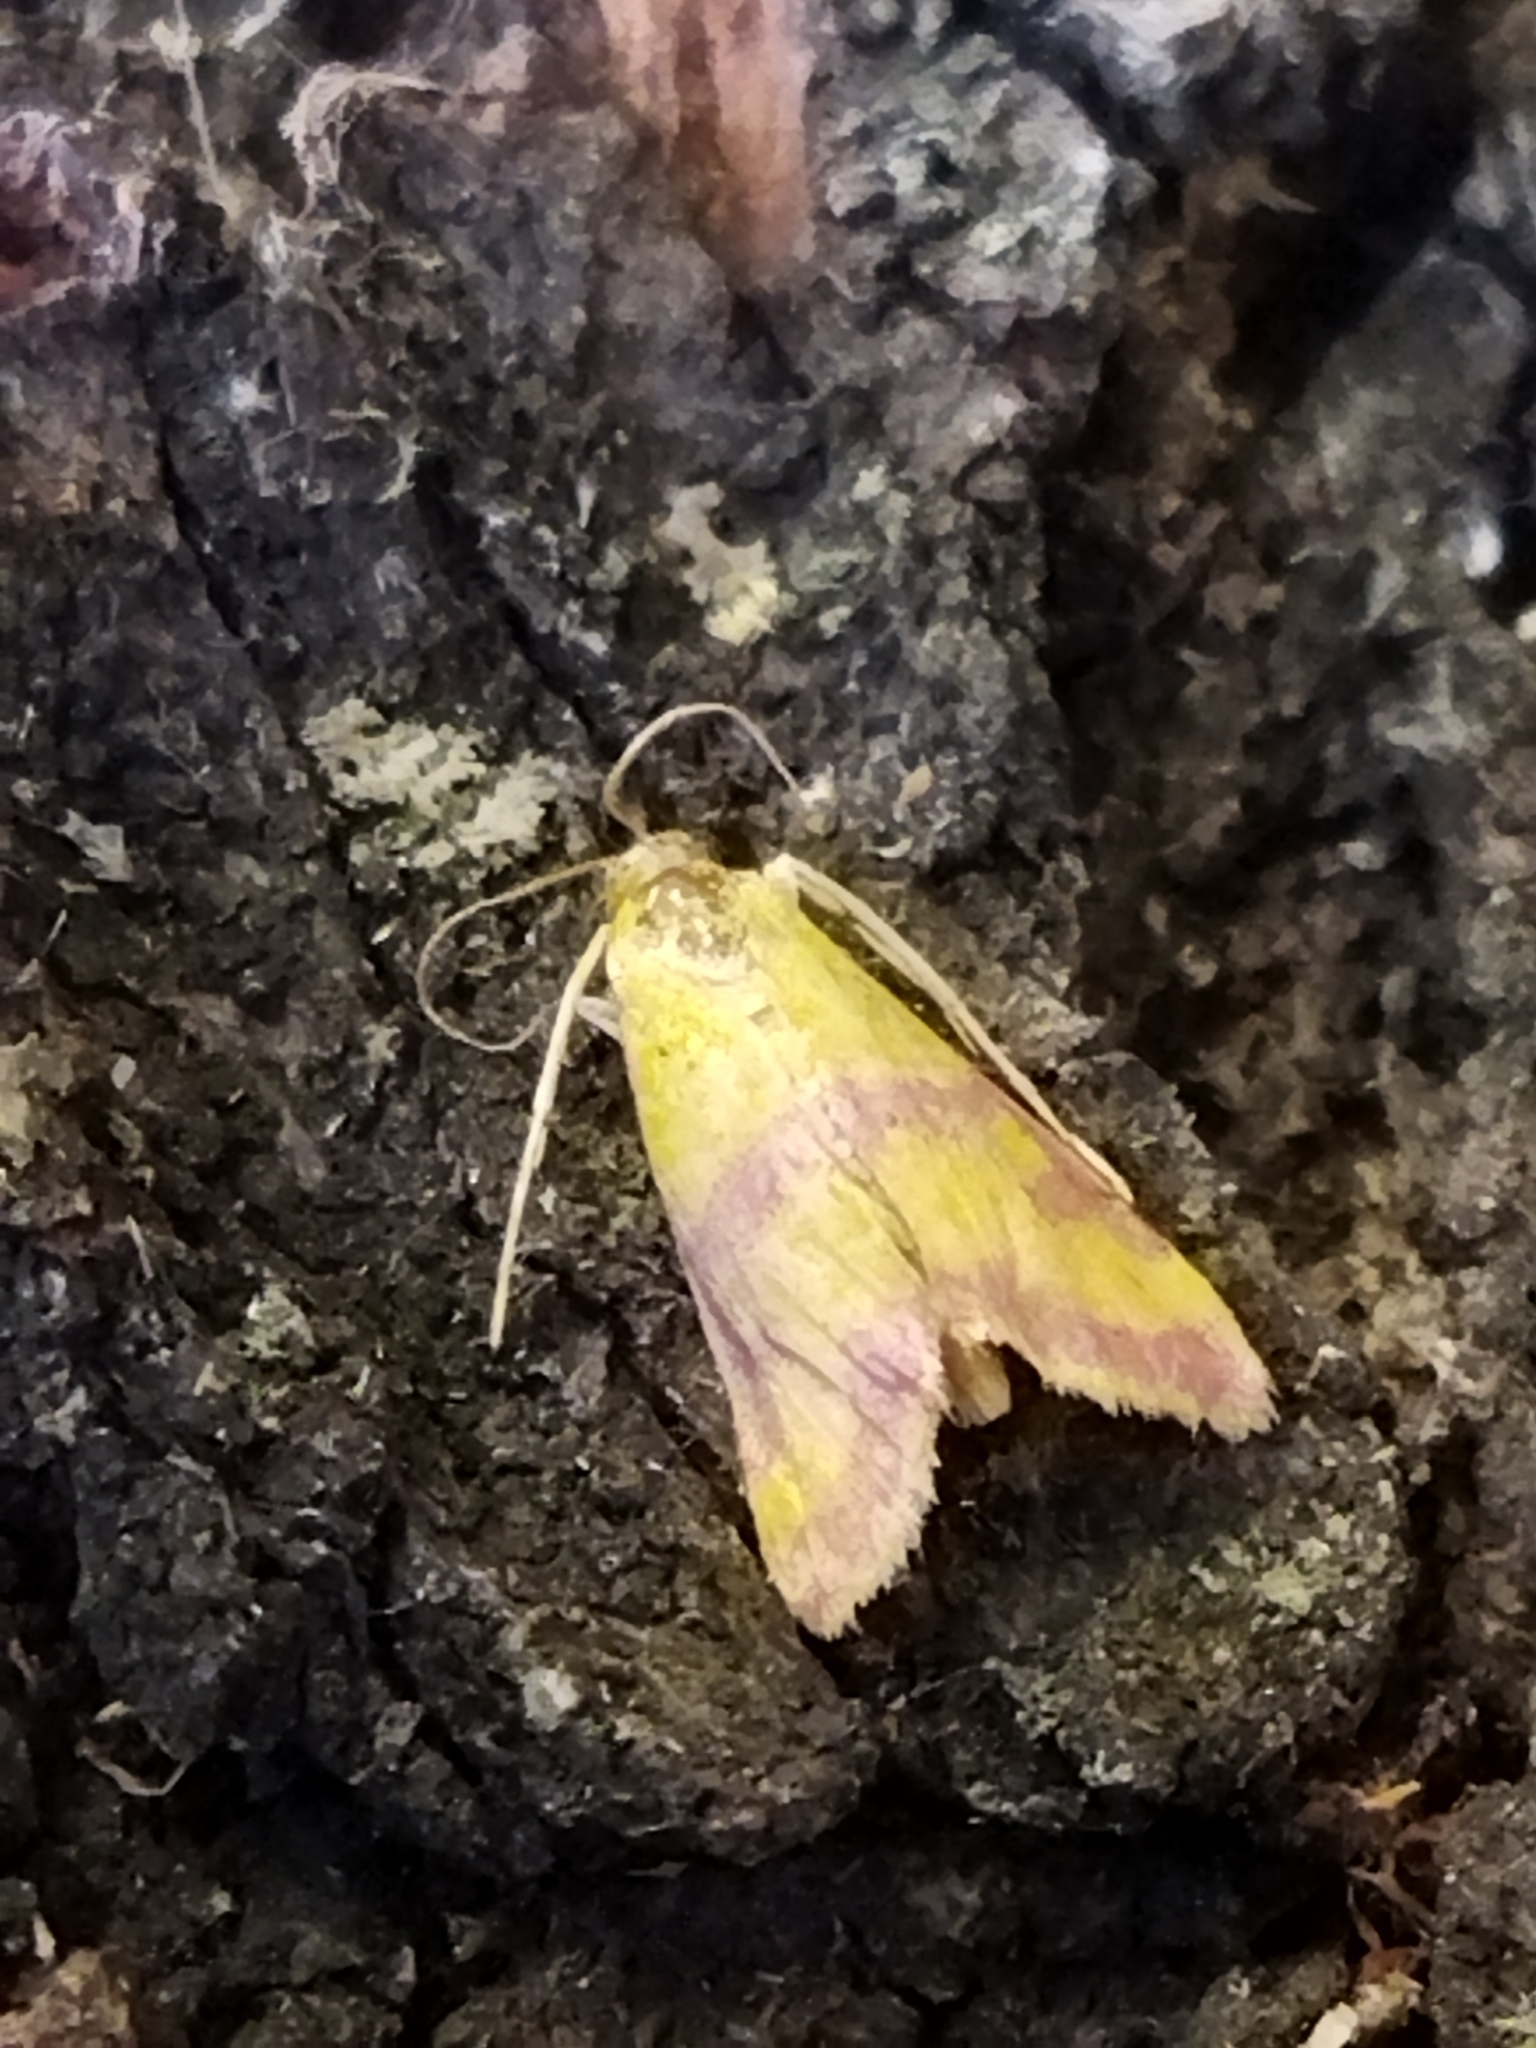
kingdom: Animalia
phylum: Arthropoda
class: Insecta
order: Lepidoptera
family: Crambidae
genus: Pyrausta
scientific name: Pyrausta sanguinalis
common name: Scarce crimson and gold
